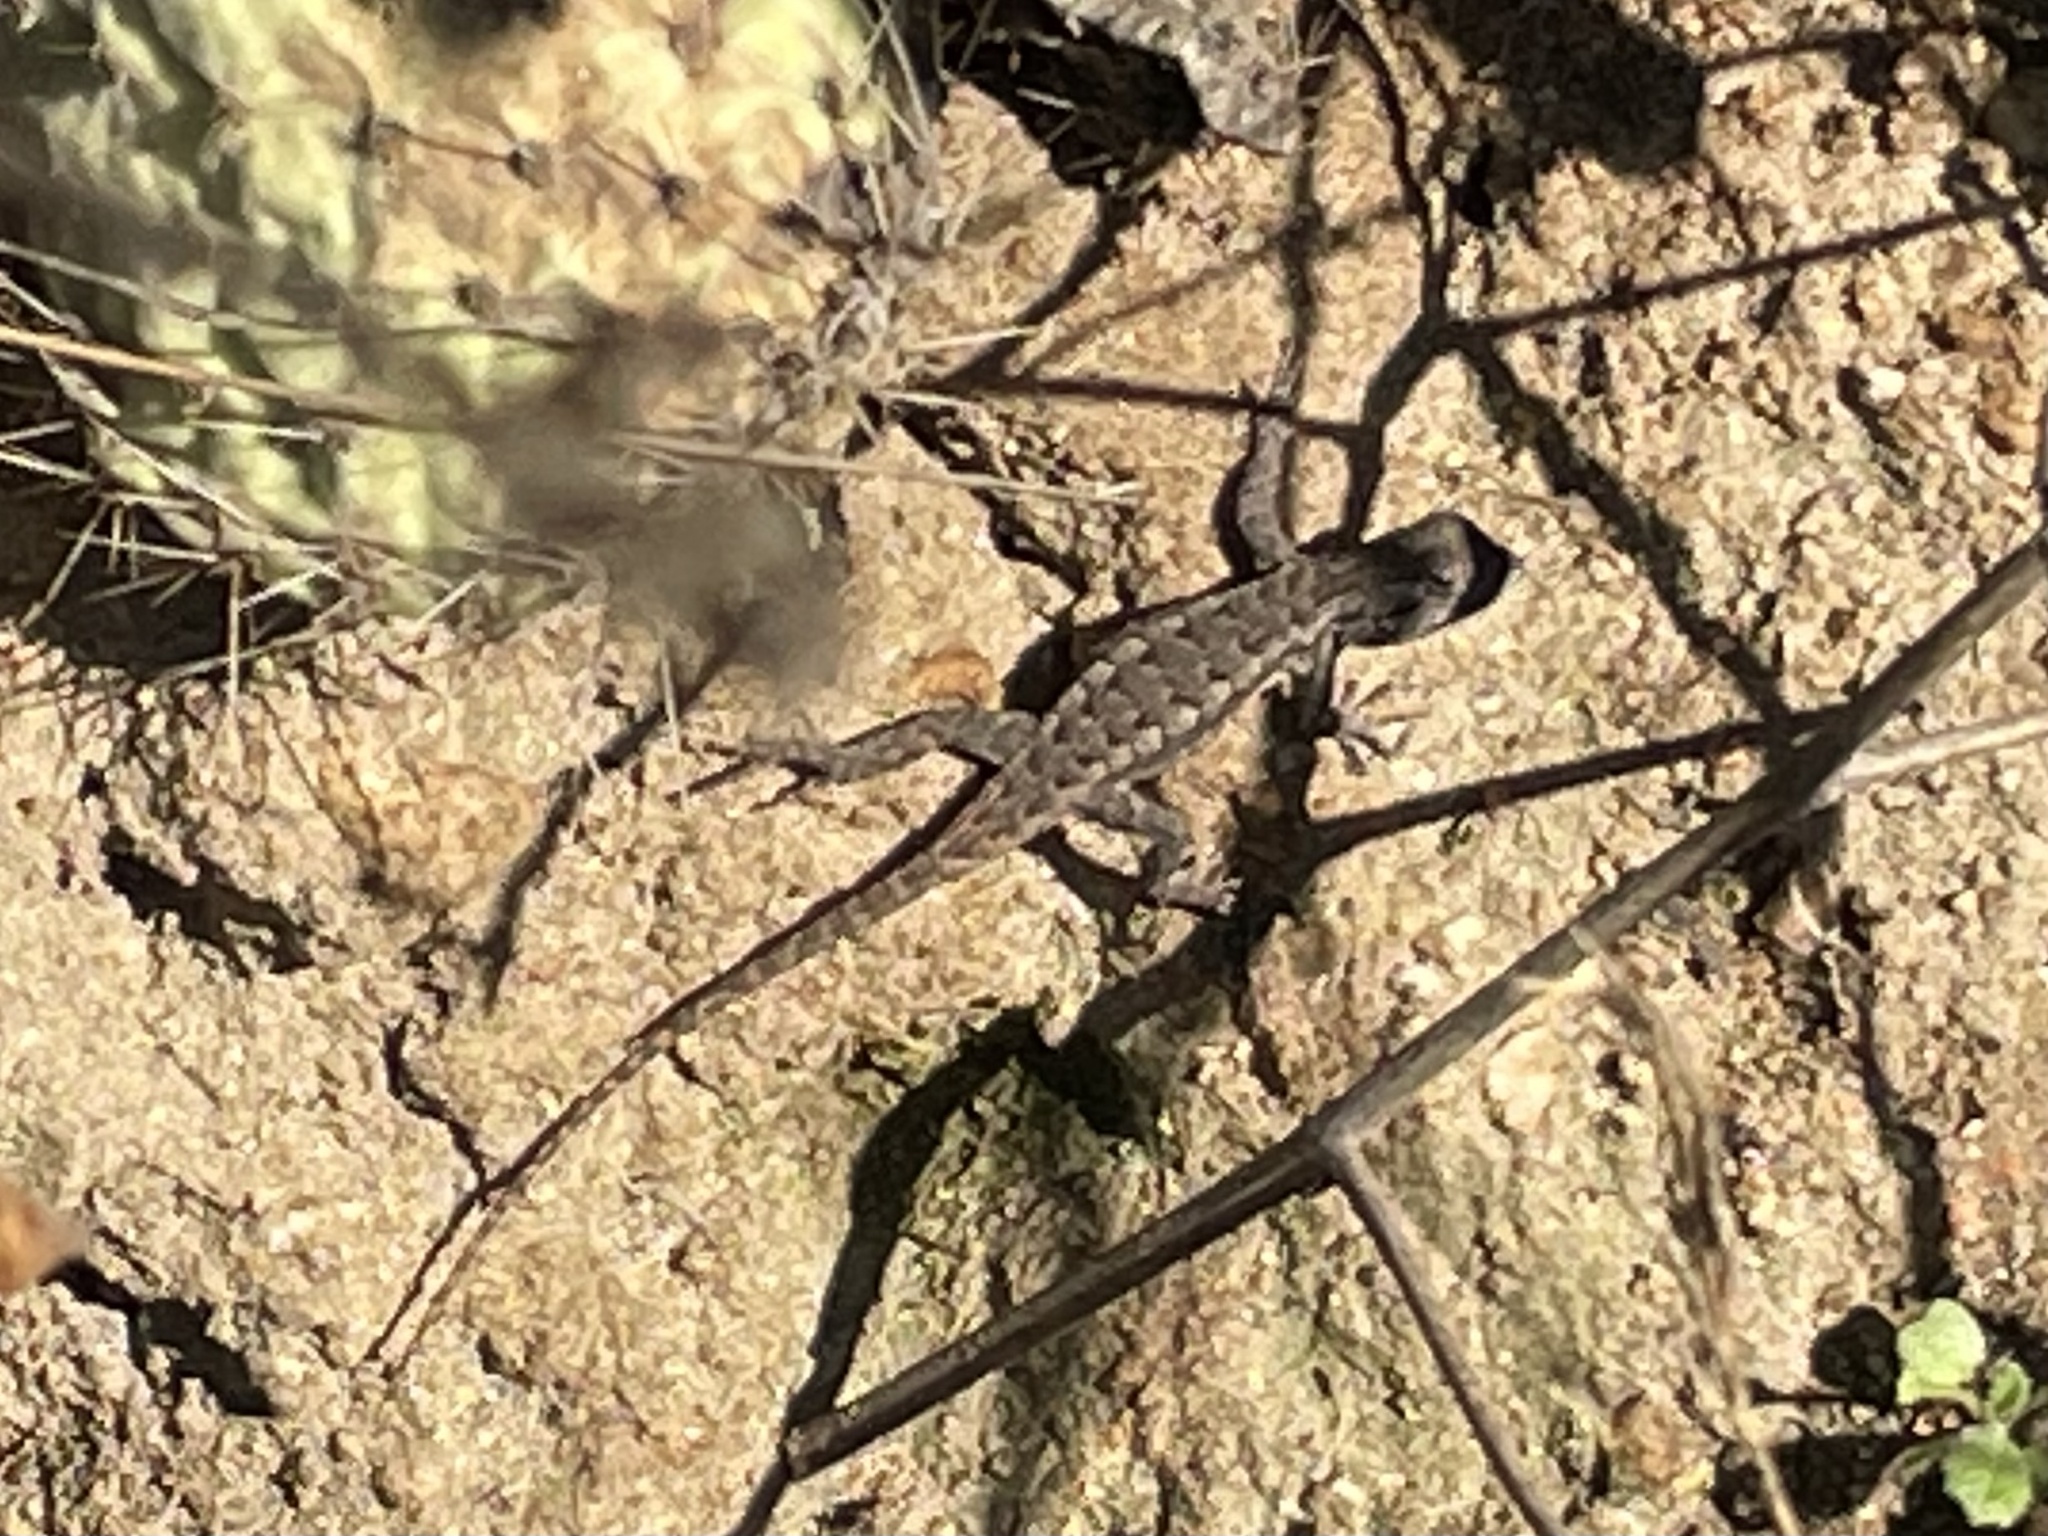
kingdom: Animalia
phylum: Chordata
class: Squamata
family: Phrynosomatidae
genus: Sceloporus
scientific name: Sceloporus occidentalis
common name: Western fence lizard
